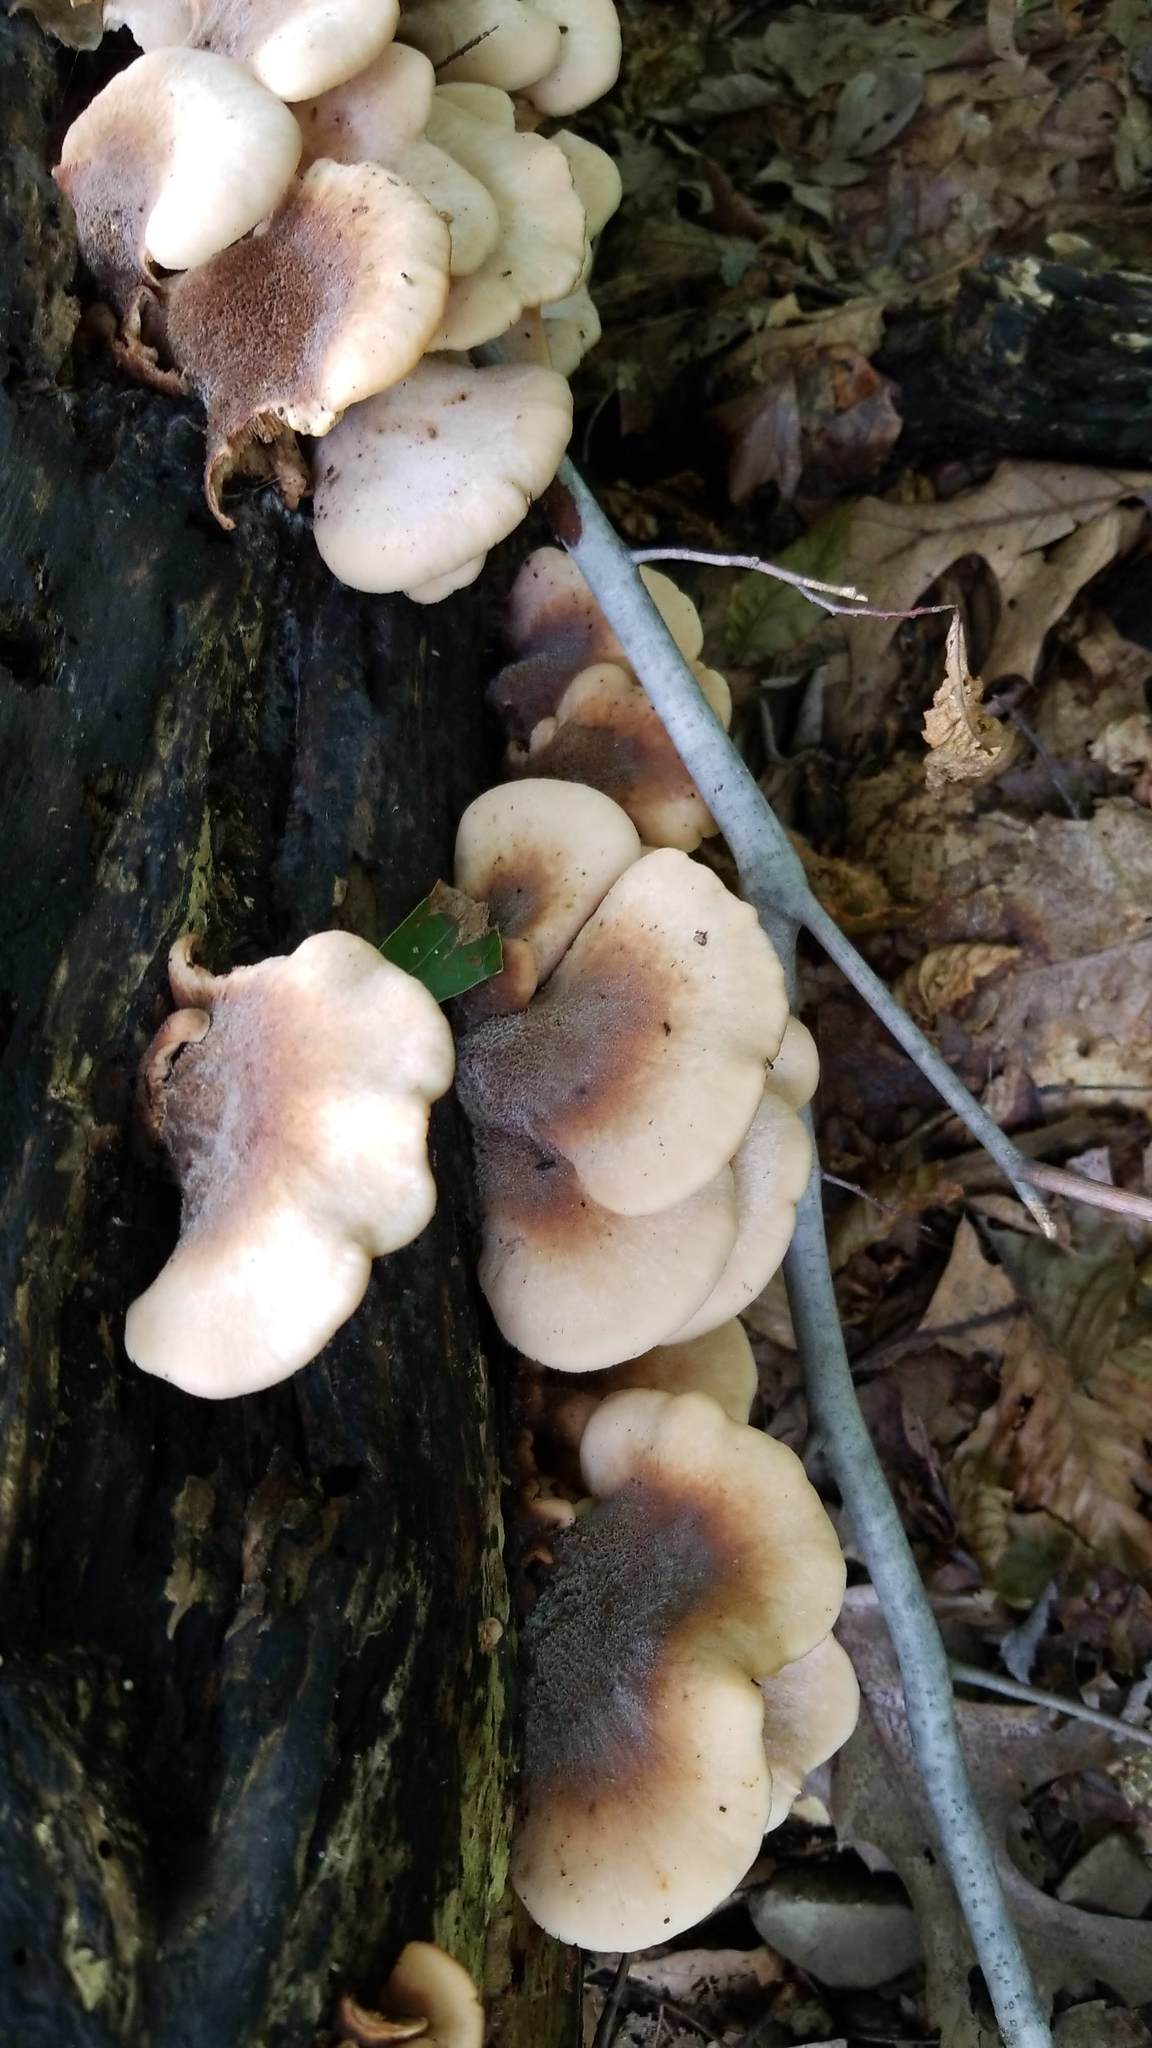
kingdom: Fungi
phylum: Basidiomycota
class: Agaricomycetes
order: Russulales
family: Auriscalpiaceae
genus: Lentinellus
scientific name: Lentinellus ursinus
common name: Bear lentinus
